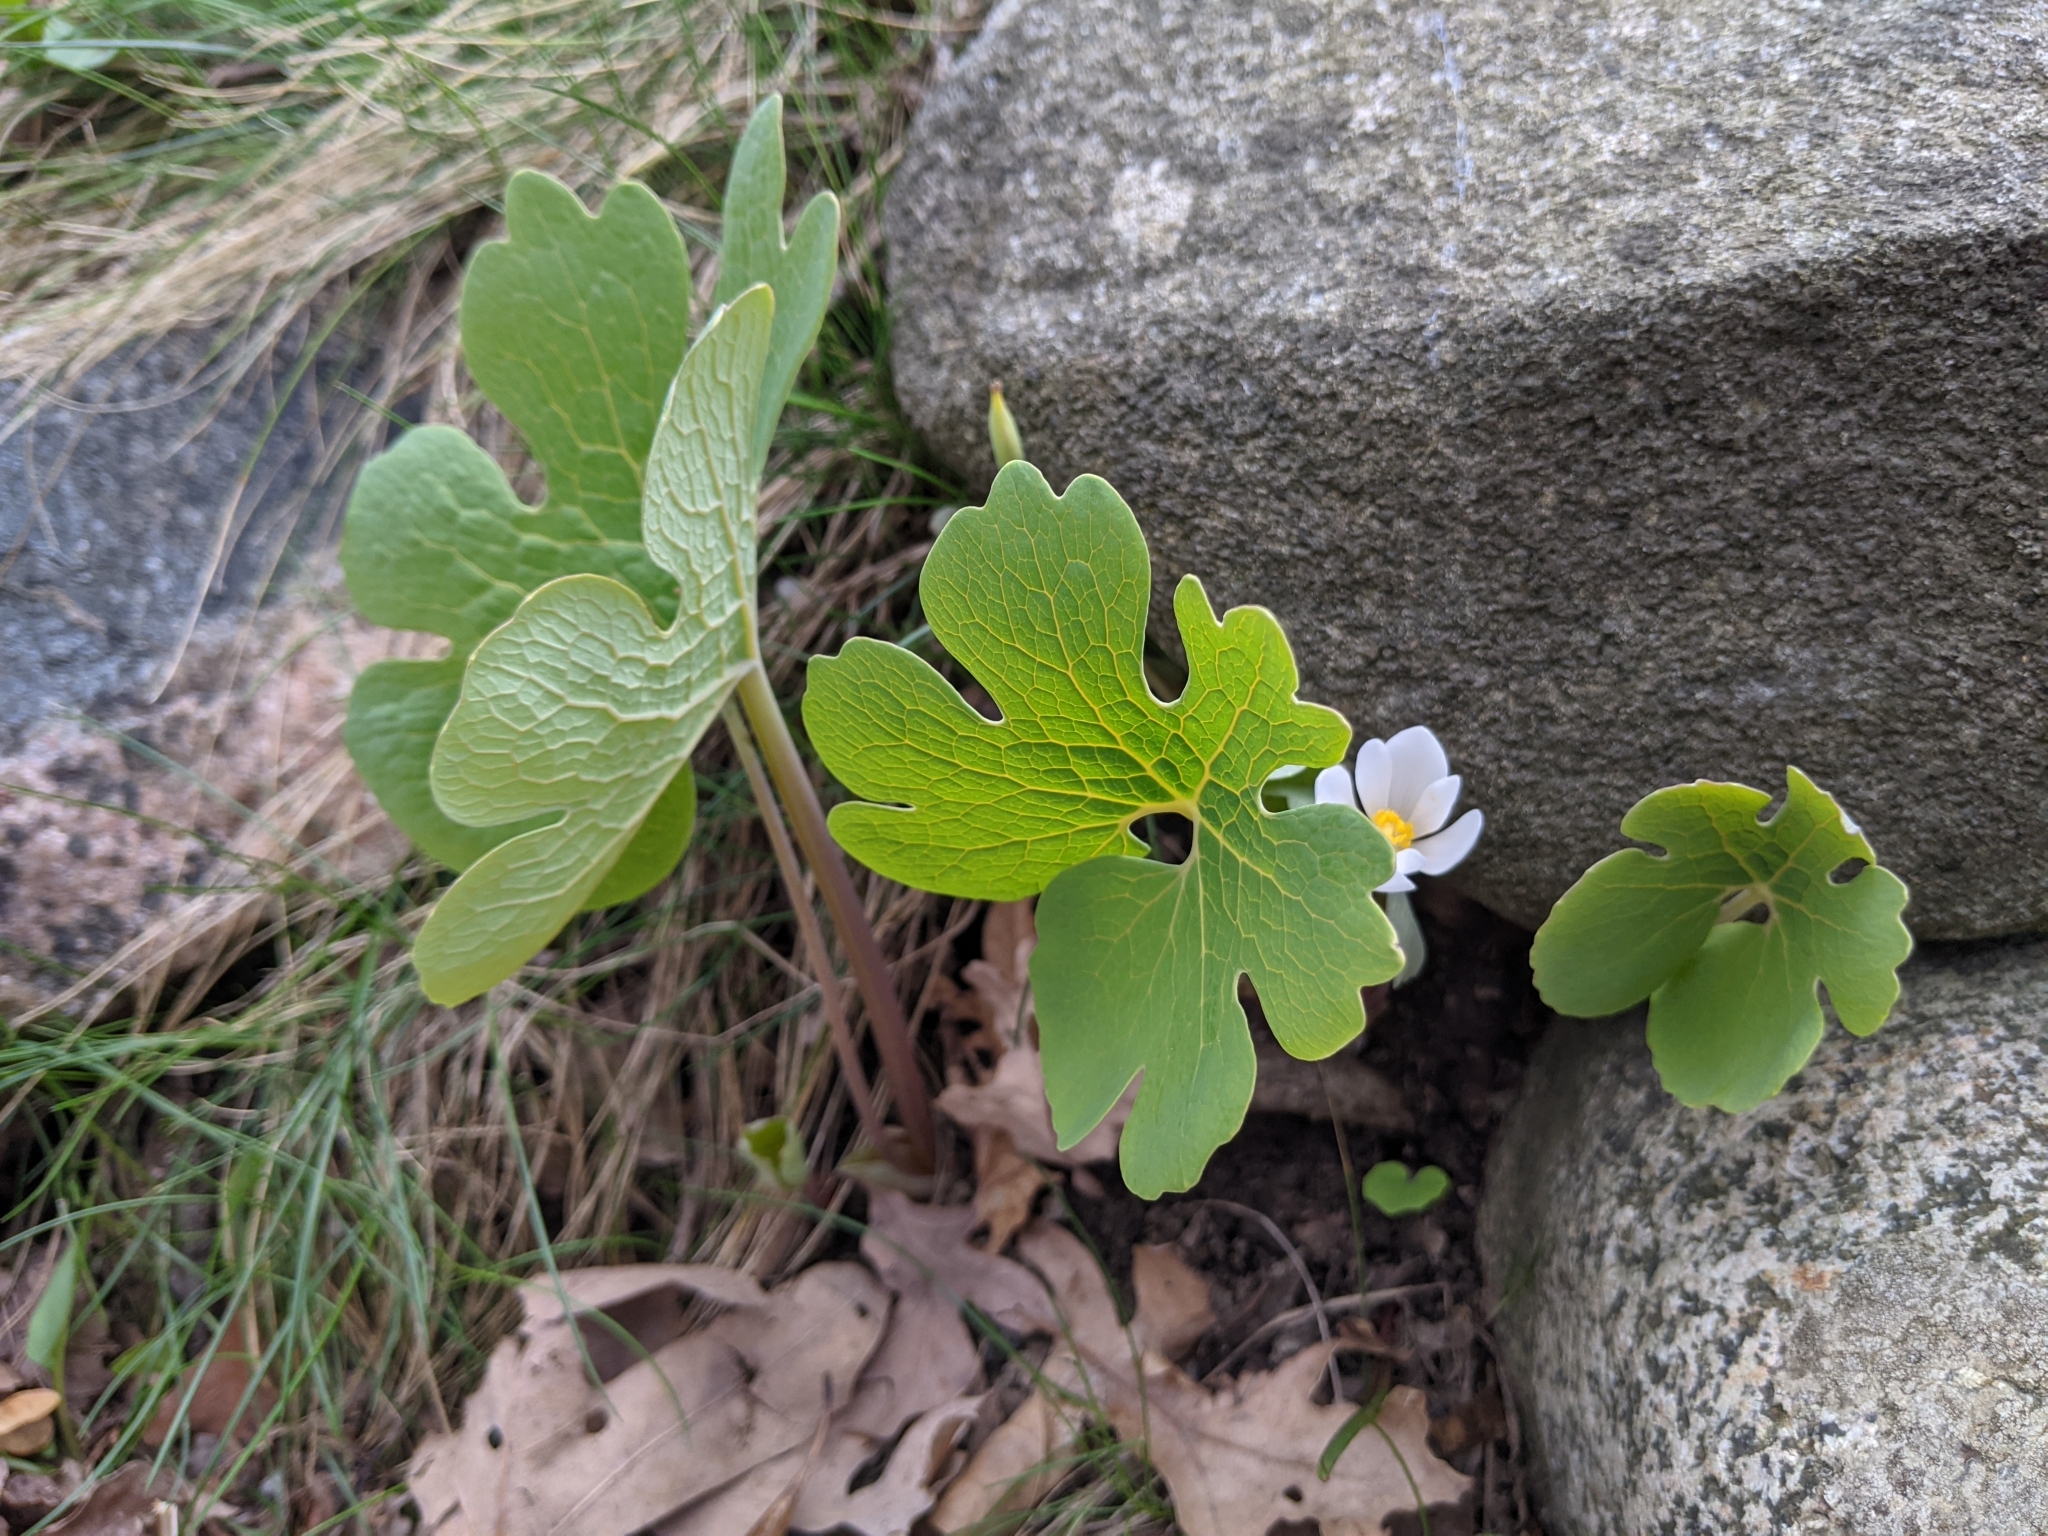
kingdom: Plantae
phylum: Tracheophyta
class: Magnoliopsida
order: Ranunculales
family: Papaveraceae
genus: Sanguinaria
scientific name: Sanguinaria canadensis
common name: Bloodroot
